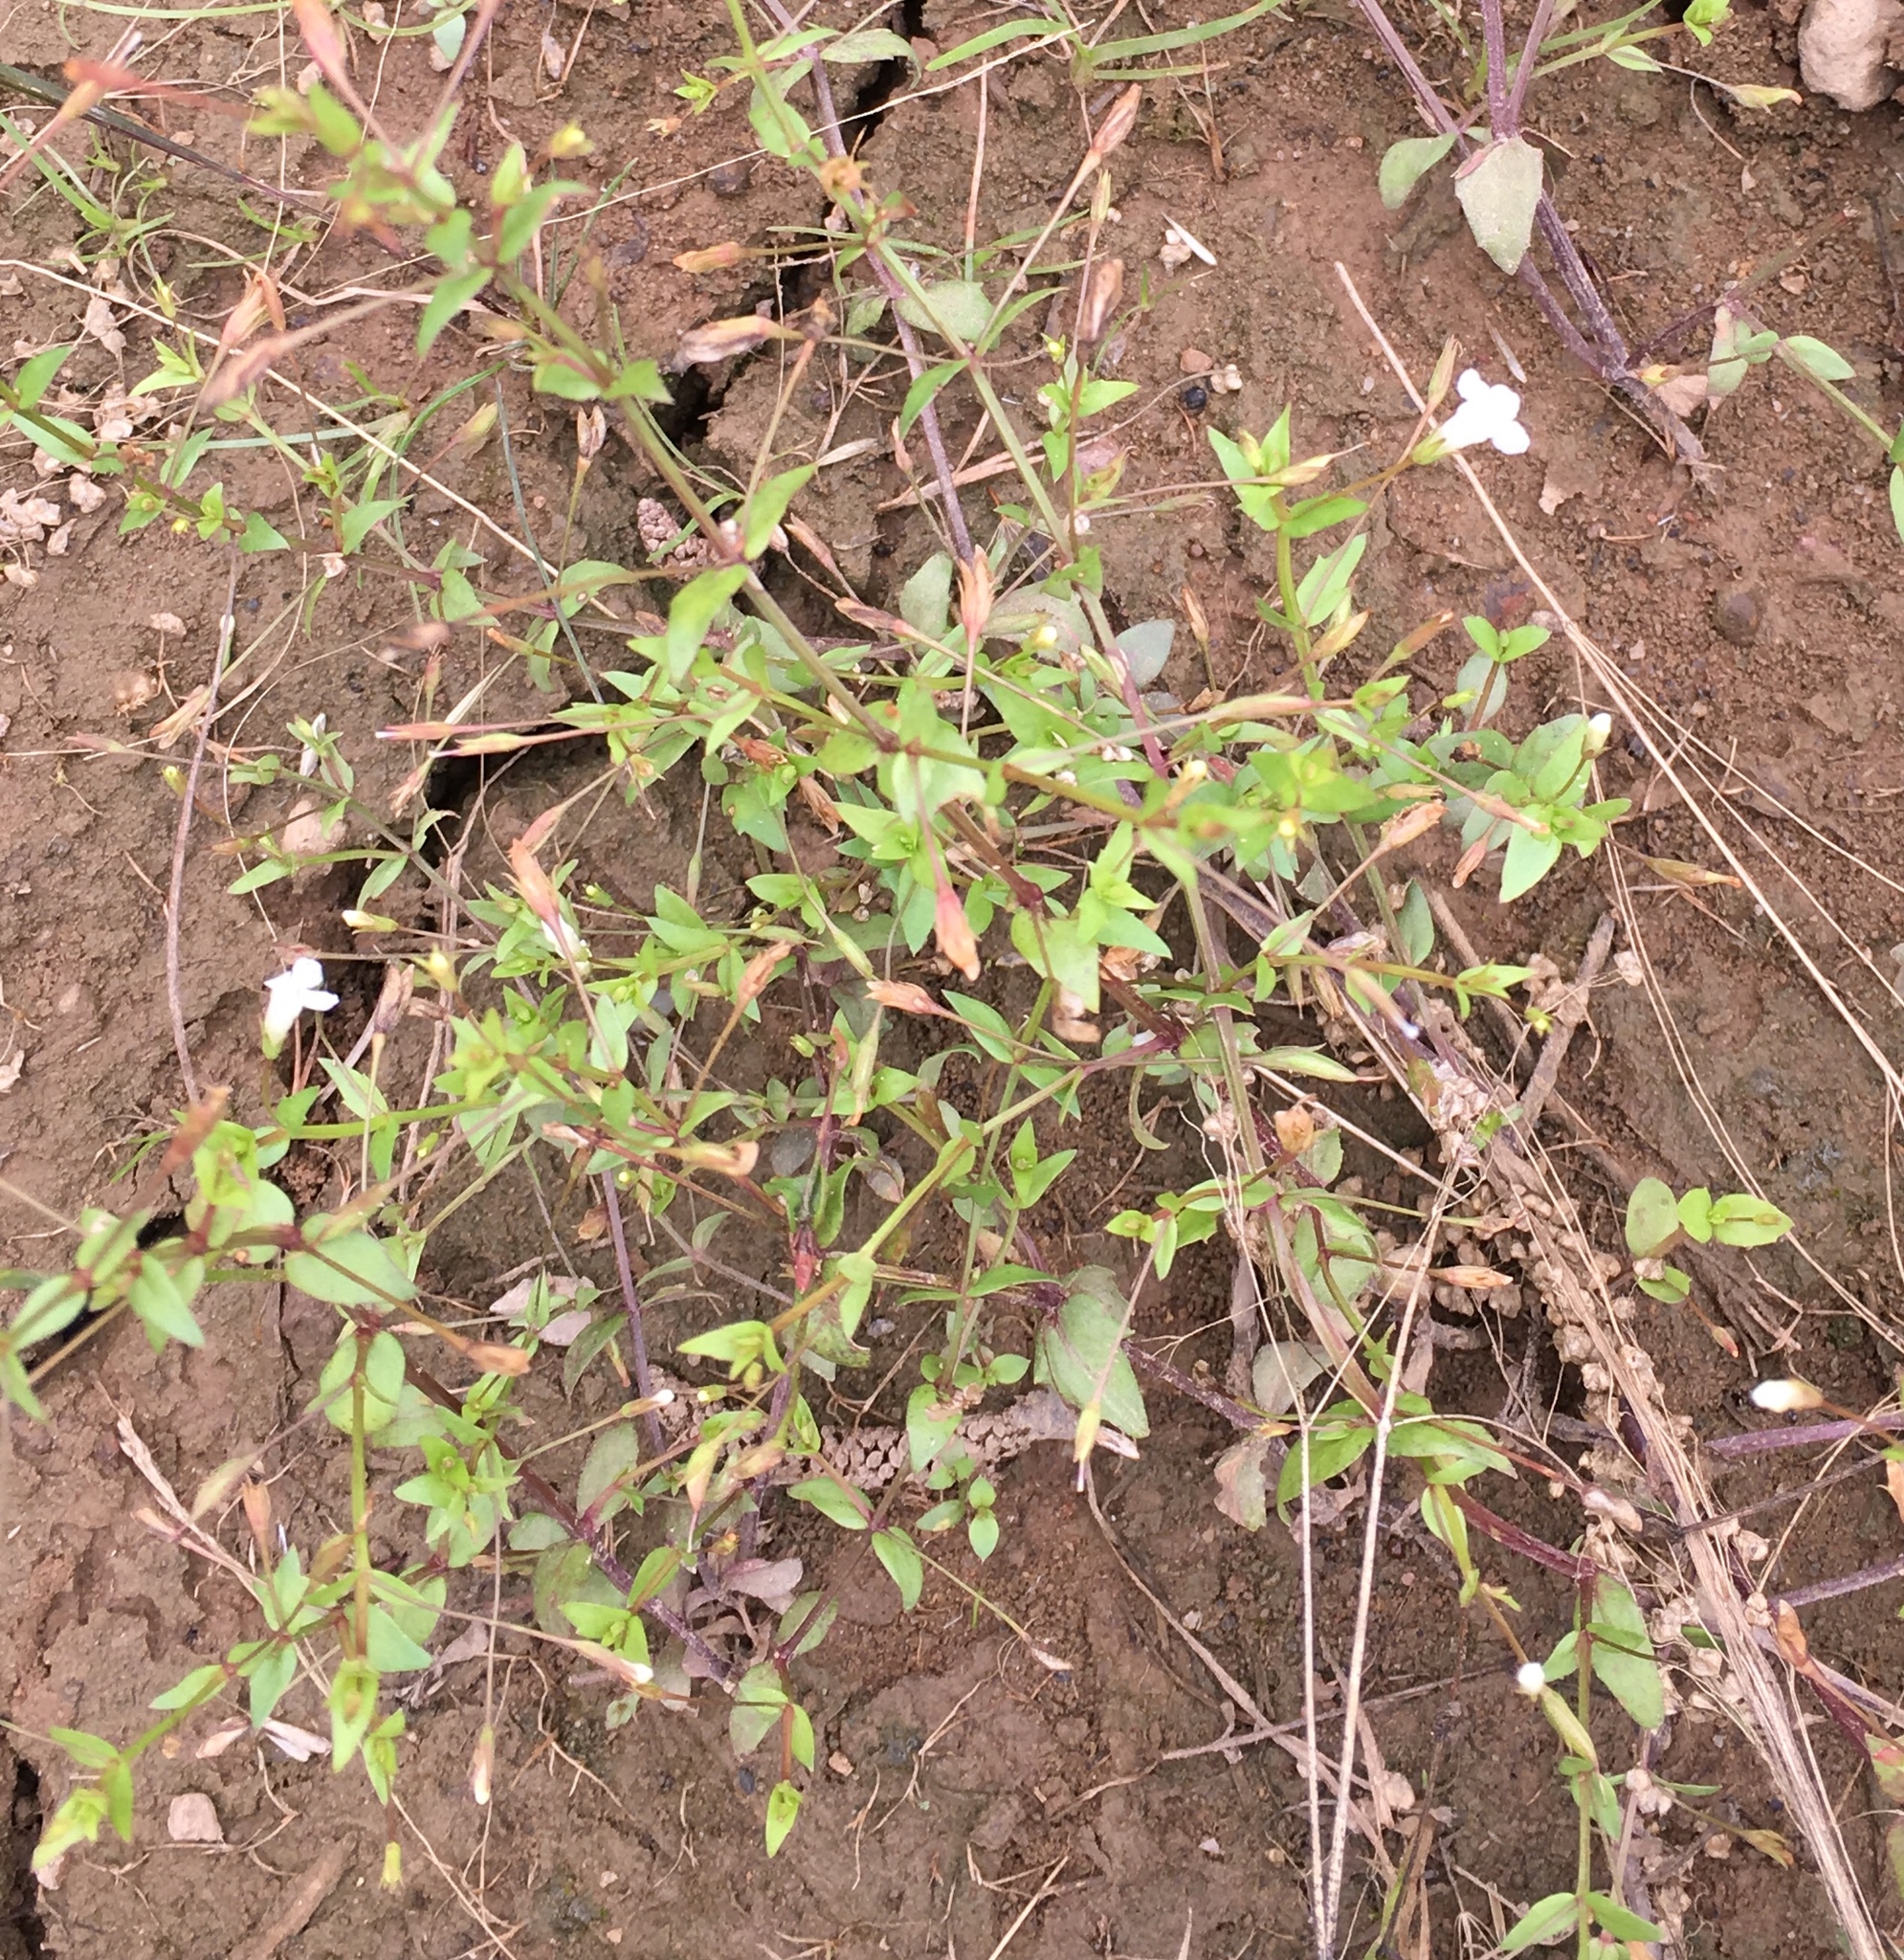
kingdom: Plantae
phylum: Tracheophyta
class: Magnoliopsida
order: Lamiales
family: Linderniaceae
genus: Lindernia
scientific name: Lindernia dubia
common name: Annual false pimpernel
